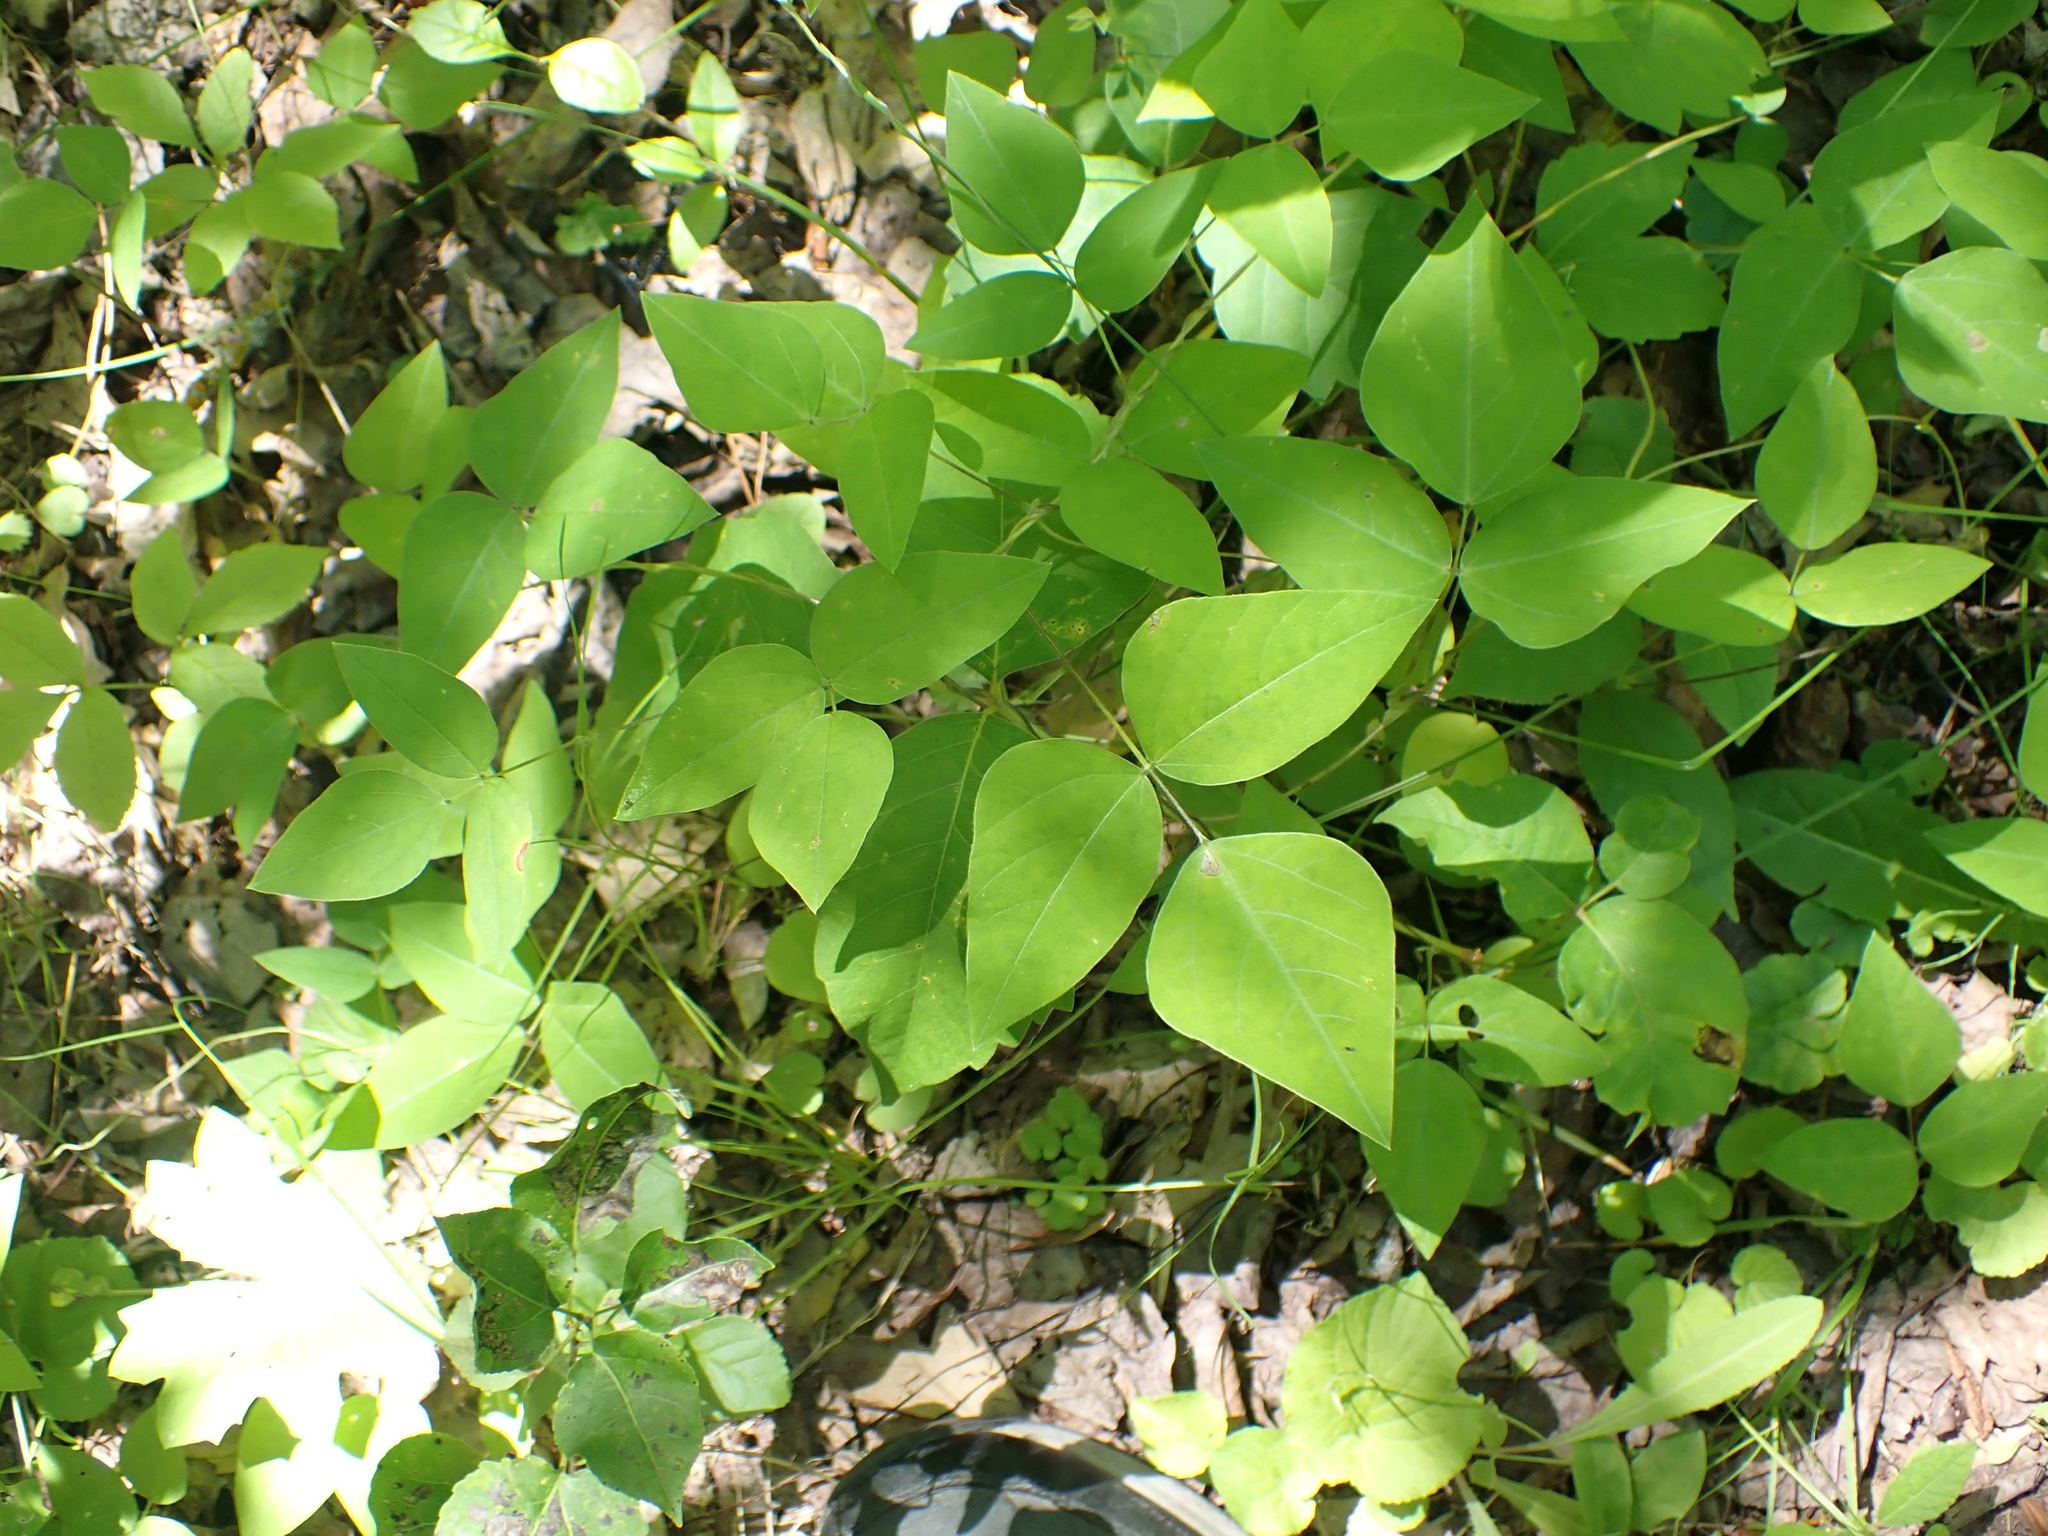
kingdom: Plantae
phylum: Tracheophyta
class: Magnoliopsida
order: Fabales
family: Fabaceae
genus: Amphicarpaea
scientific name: Amphicarpaea bracteata
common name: American hog peanut
